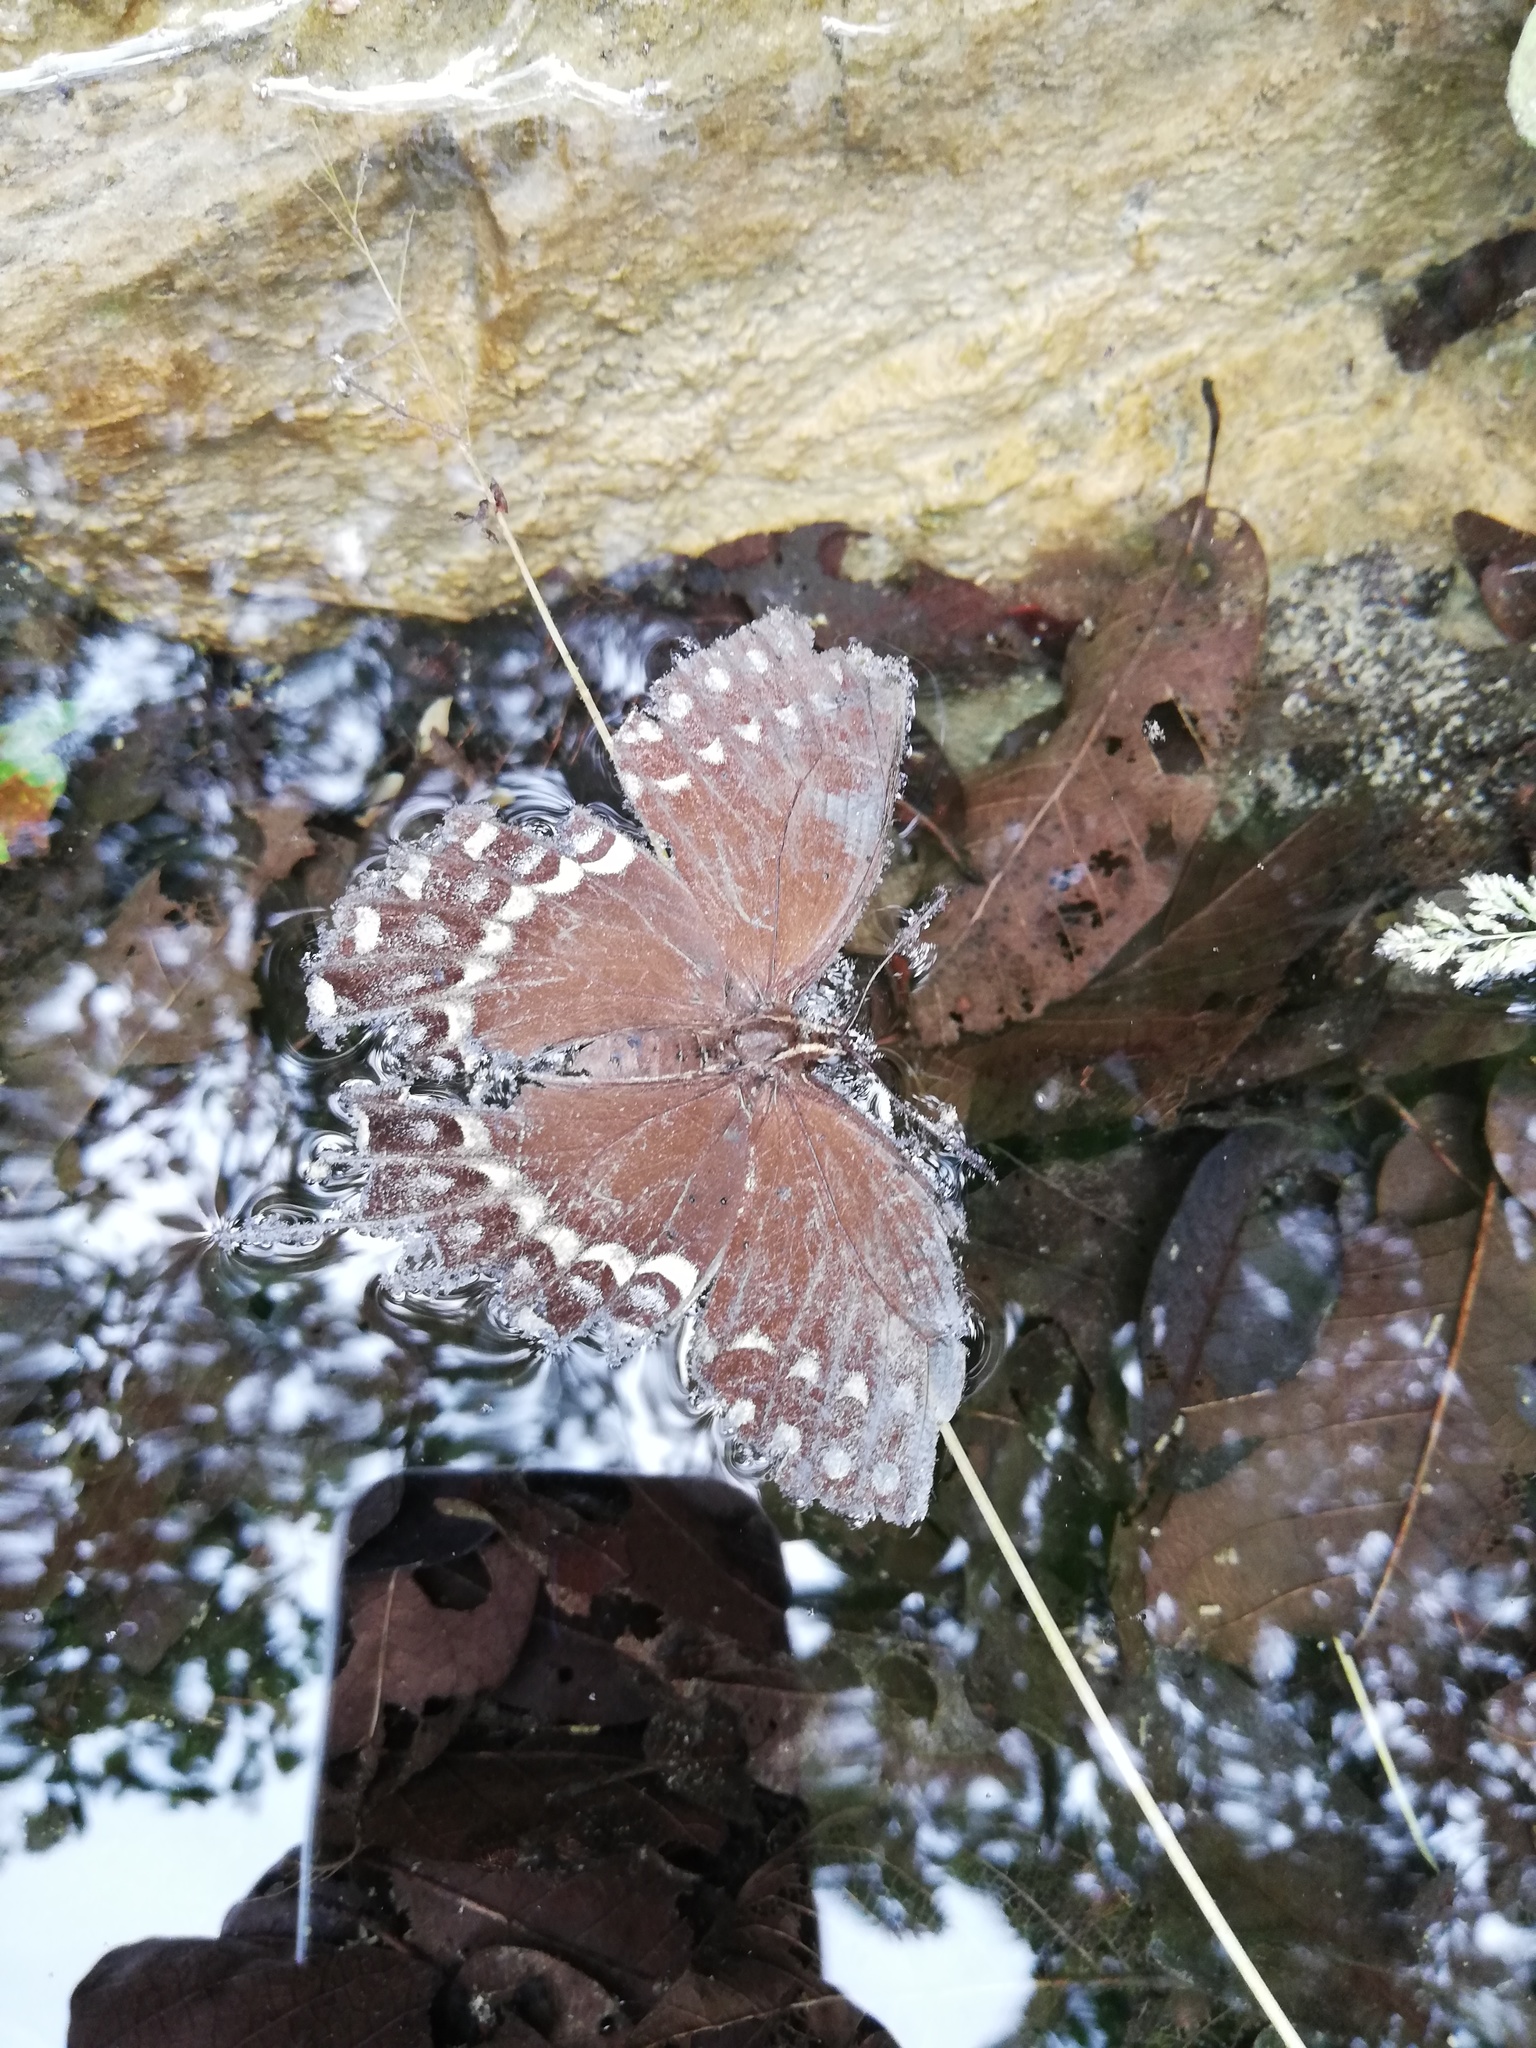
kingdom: Animalia
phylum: Arthropoda
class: Insecta
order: Lepidoptera
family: Papilionidae
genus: Papilio
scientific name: Papilio palamedes
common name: Palamedes swallowtail
